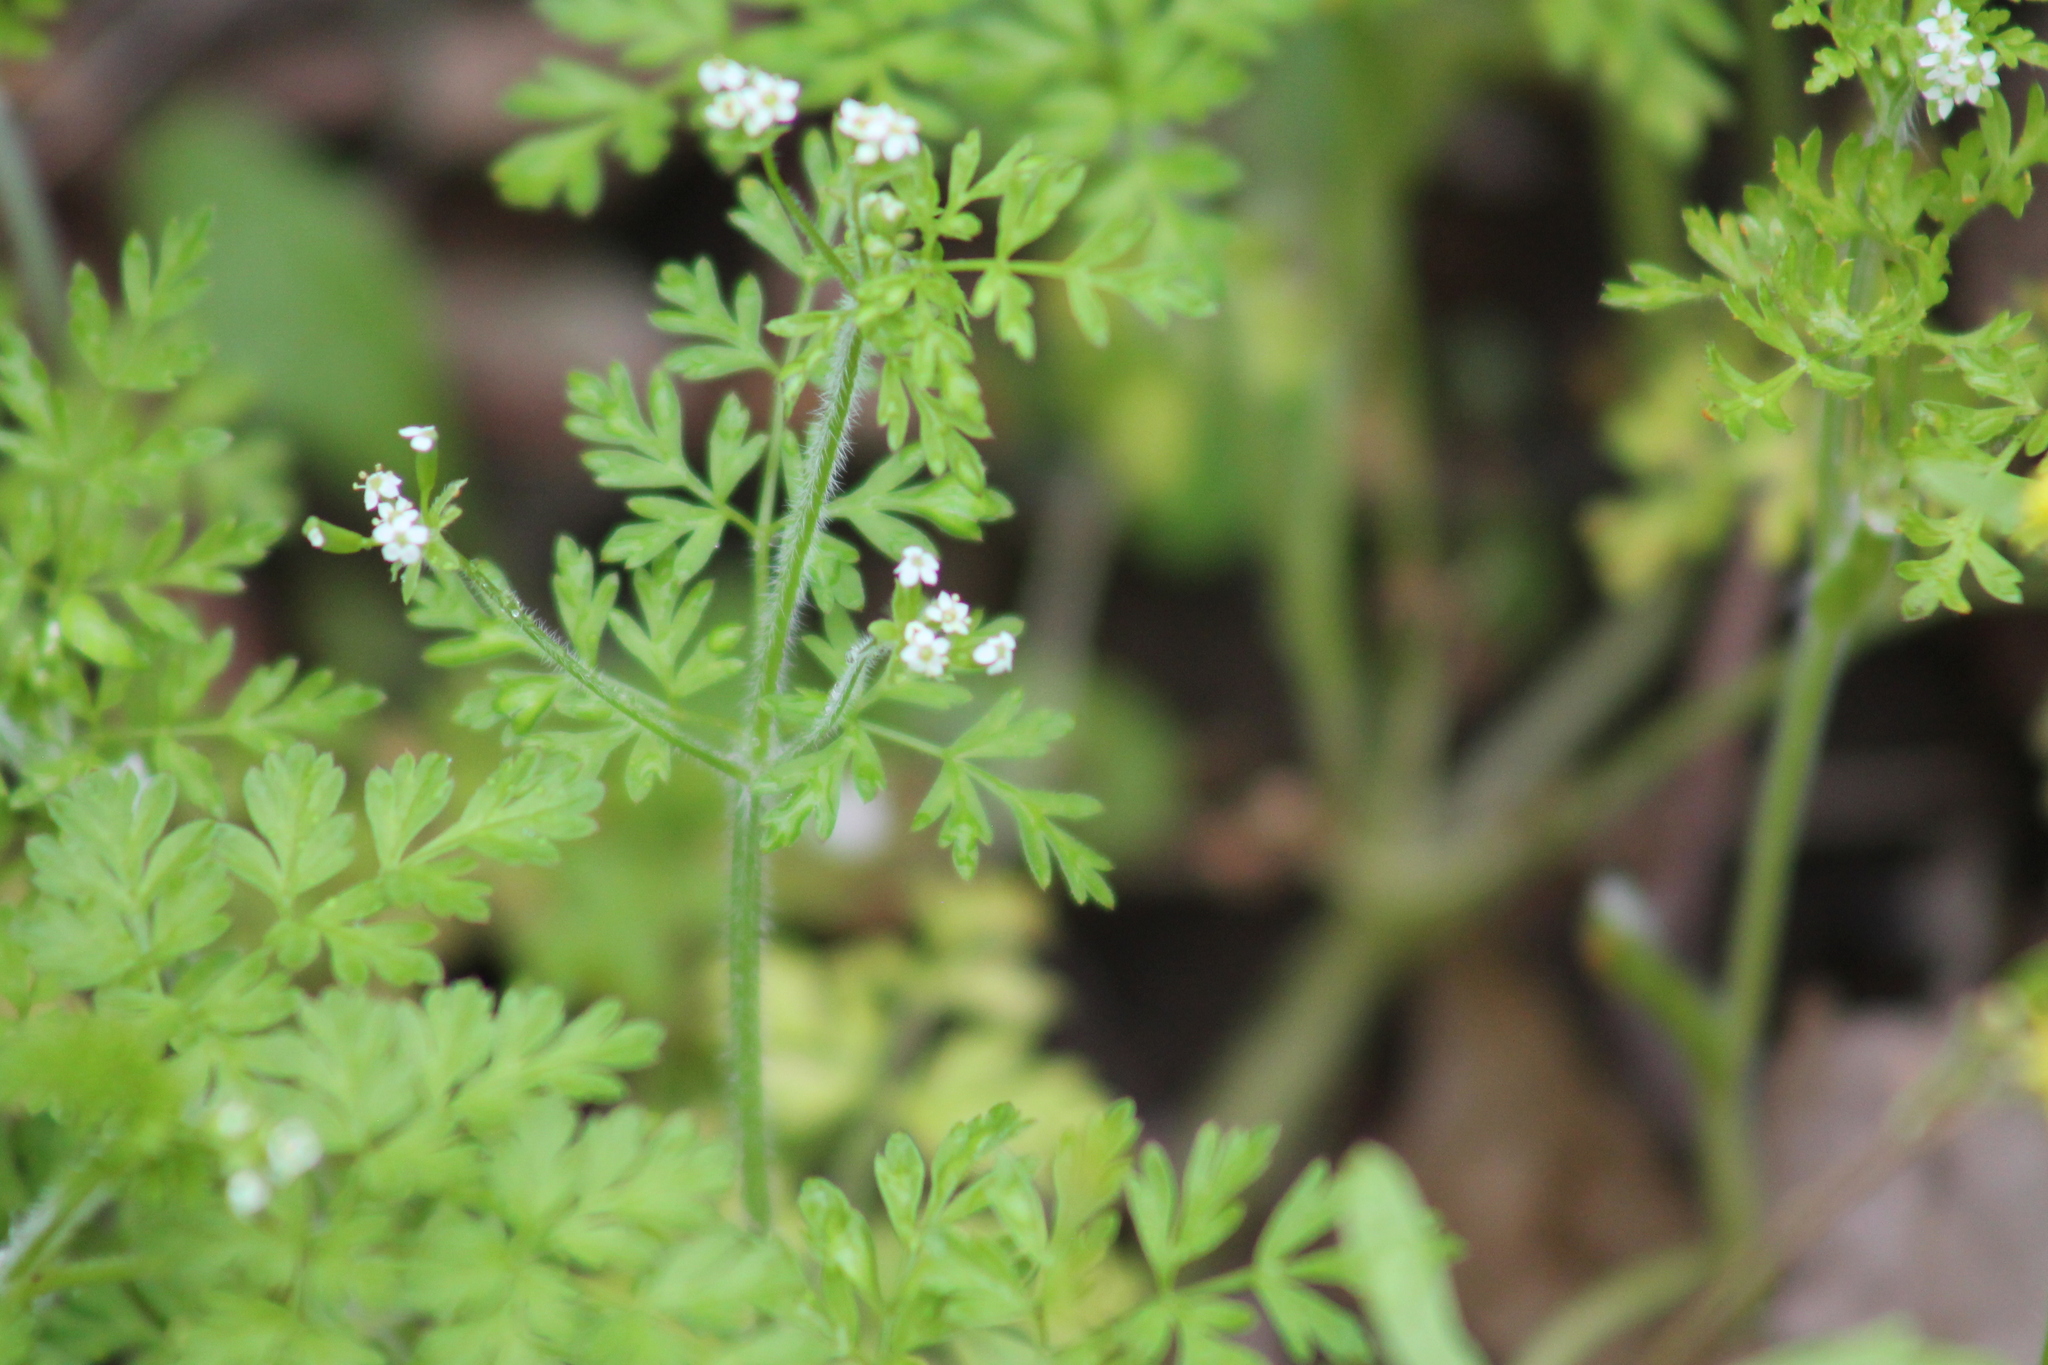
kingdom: Plantae
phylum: Tracheophyta
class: Magnoliopsida
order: Apiales
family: Apiaceae
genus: Chaerophyllum
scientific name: Chaerophyllum tainturieri
